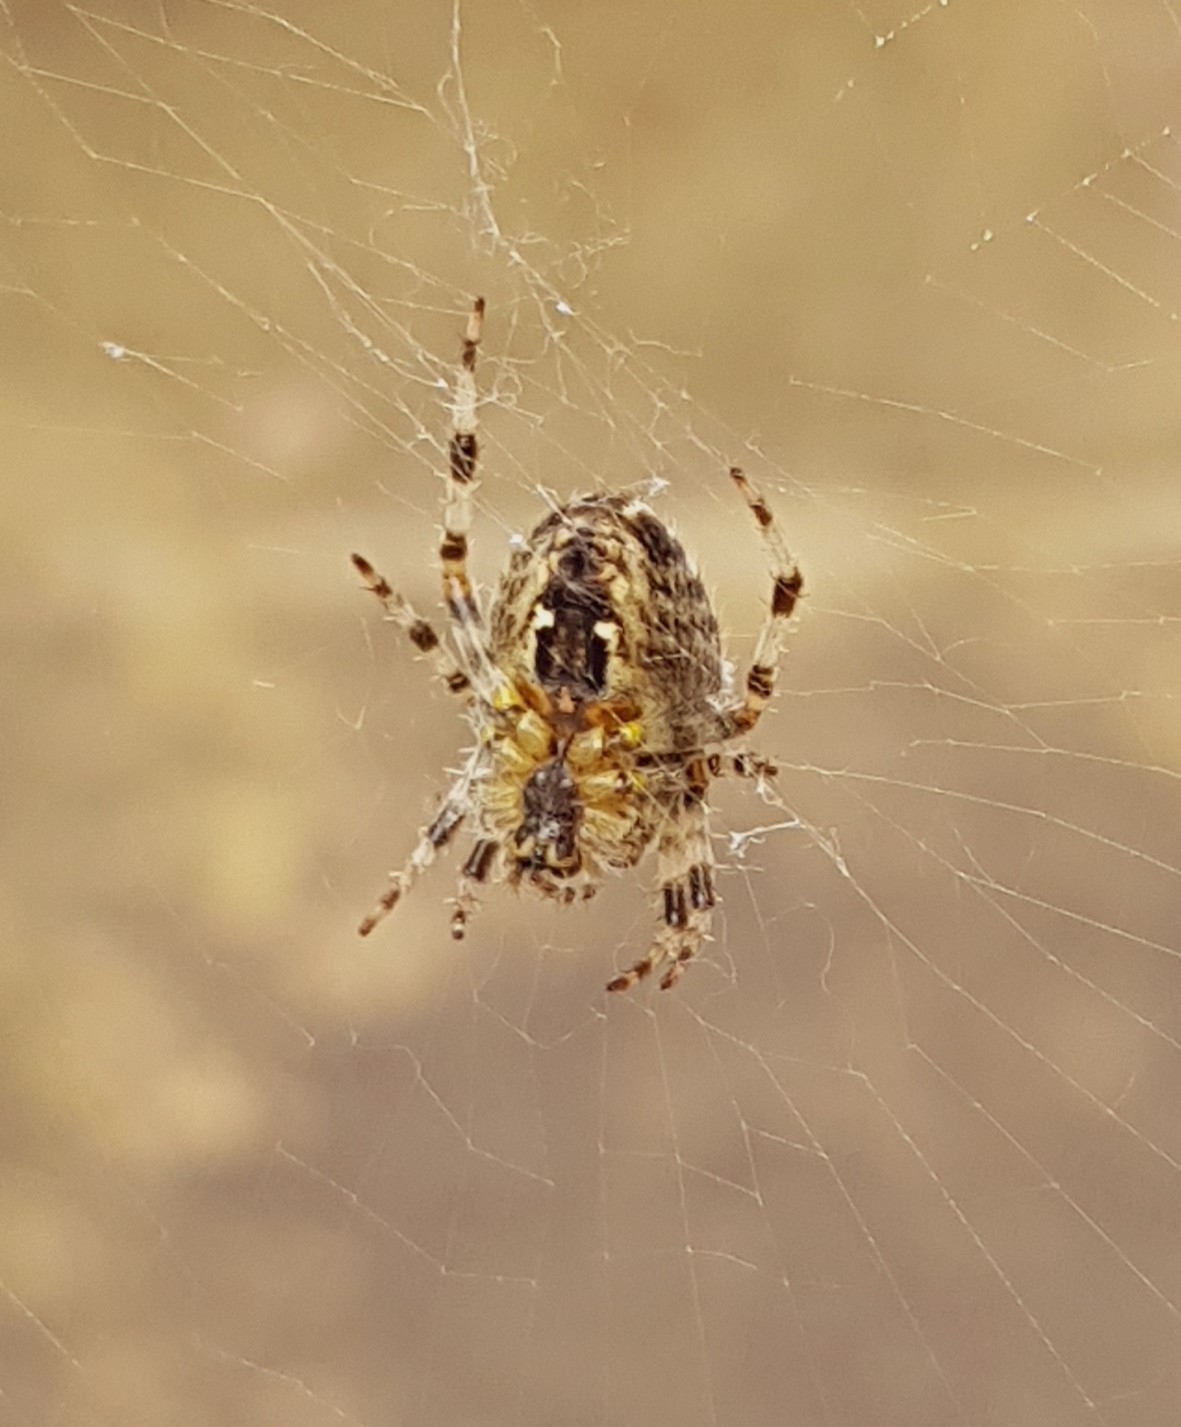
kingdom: Animalia
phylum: Arthropoda
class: Arachnida
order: Araneae
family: Araneidae
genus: Araneus
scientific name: Araneus diadematus
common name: Cross orbweaver
